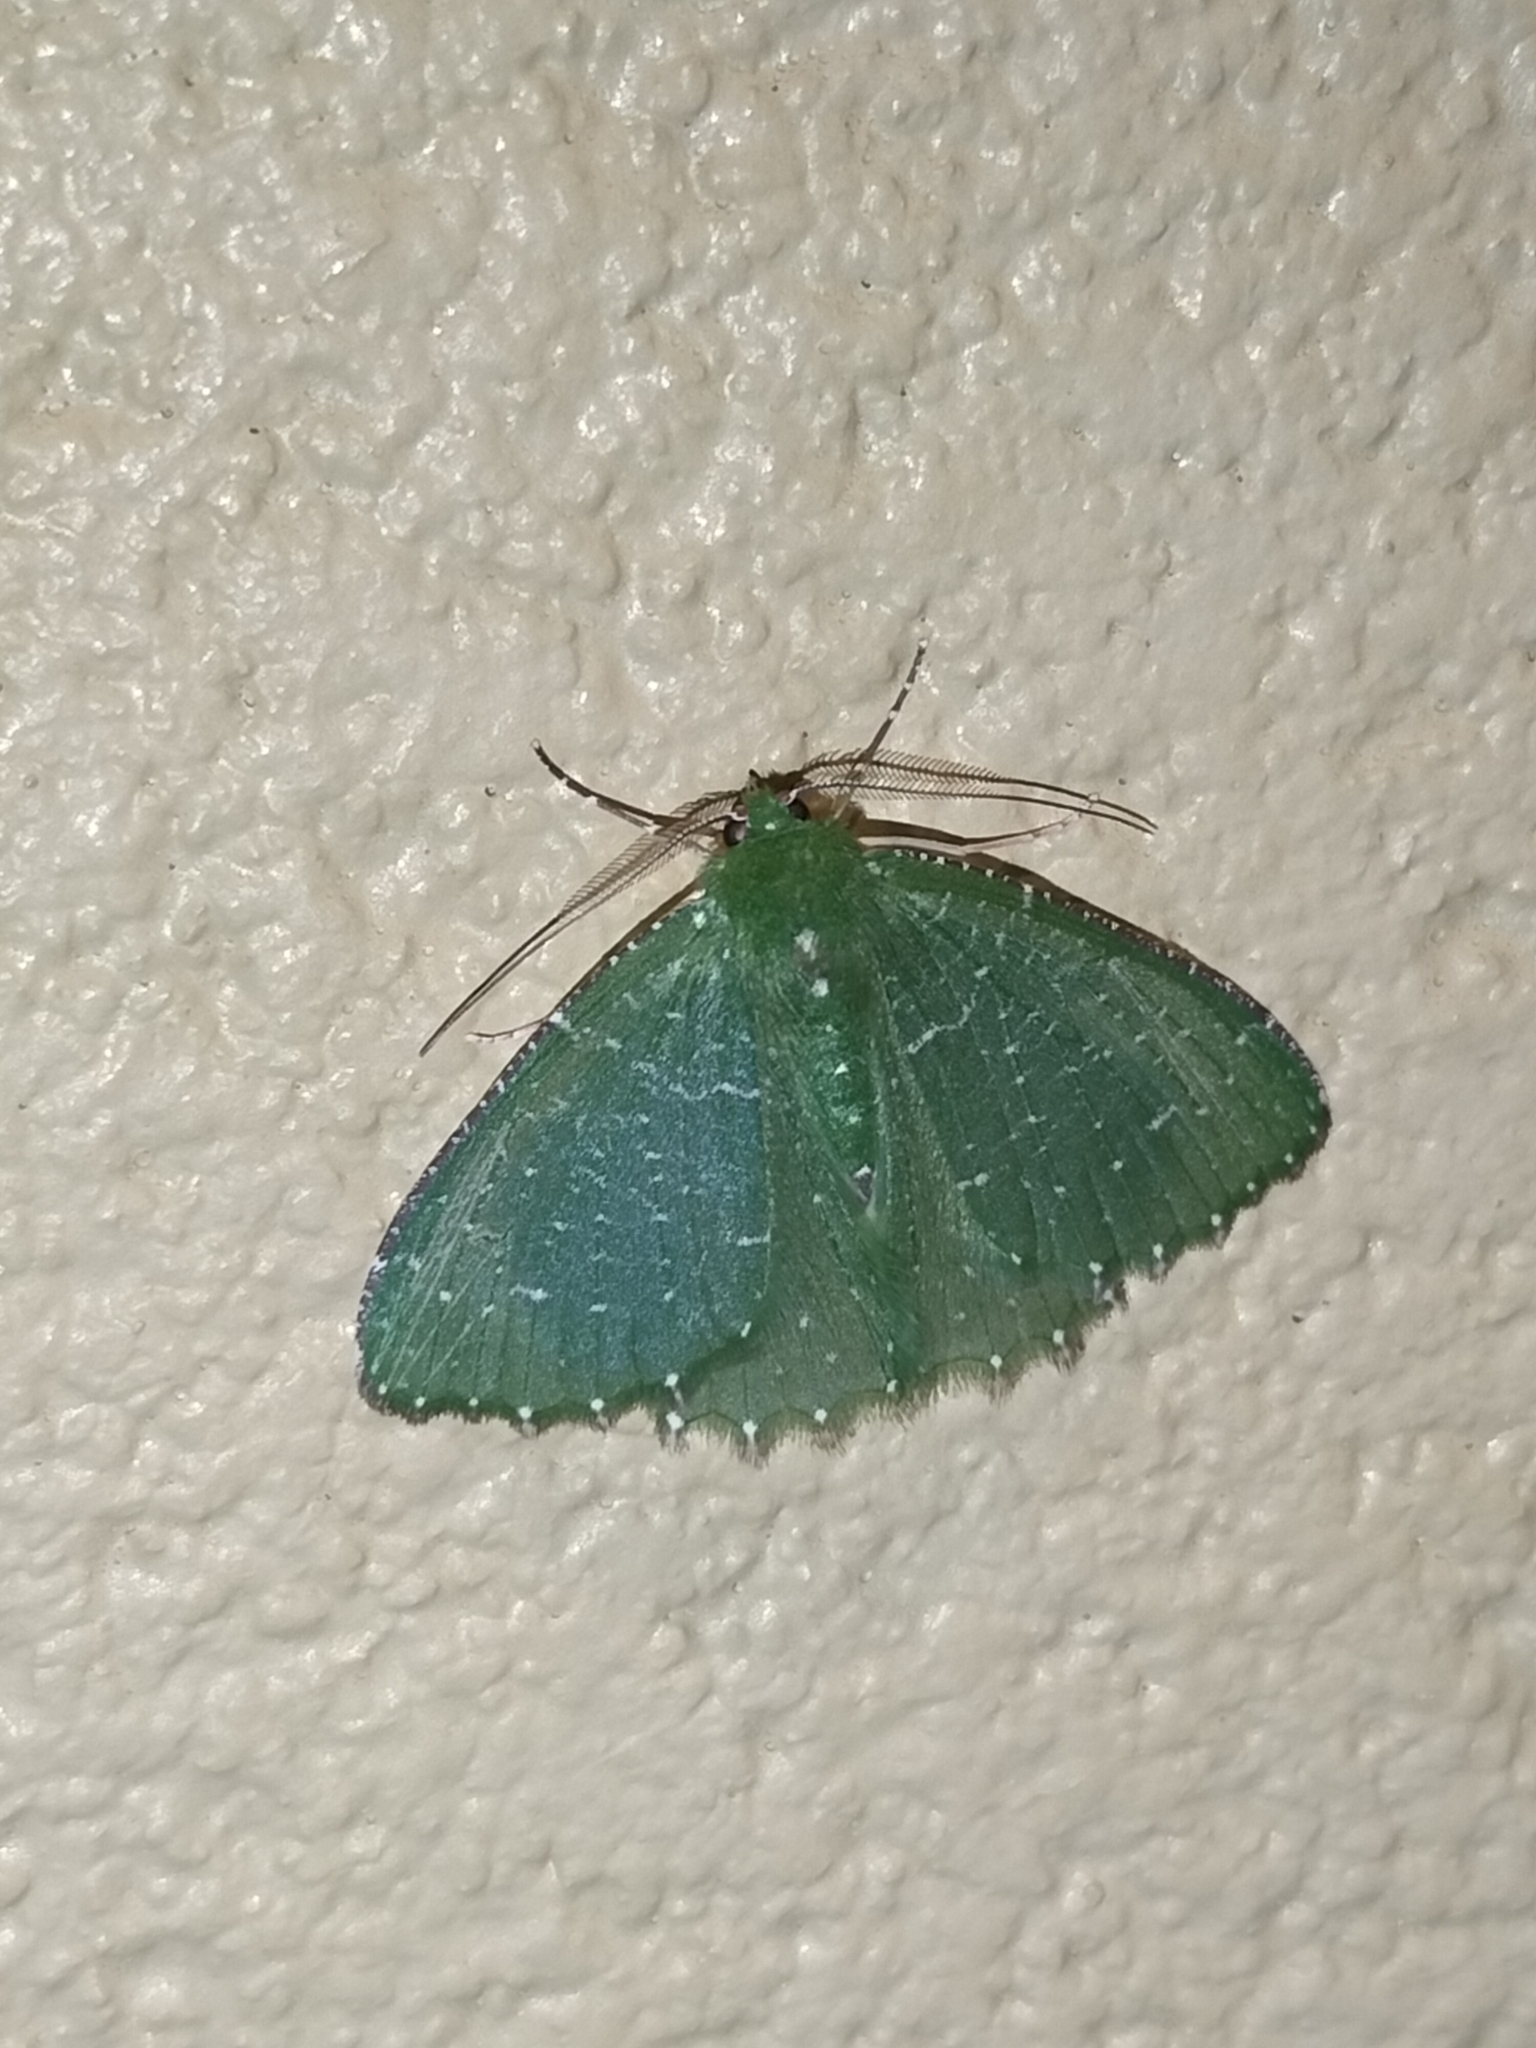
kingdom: Animalia
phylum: Arthropoda
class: Insecta
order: Lepidoptera
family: Geometridae
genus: Eucyclodes
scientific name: Eucyclodes lithocrossa
